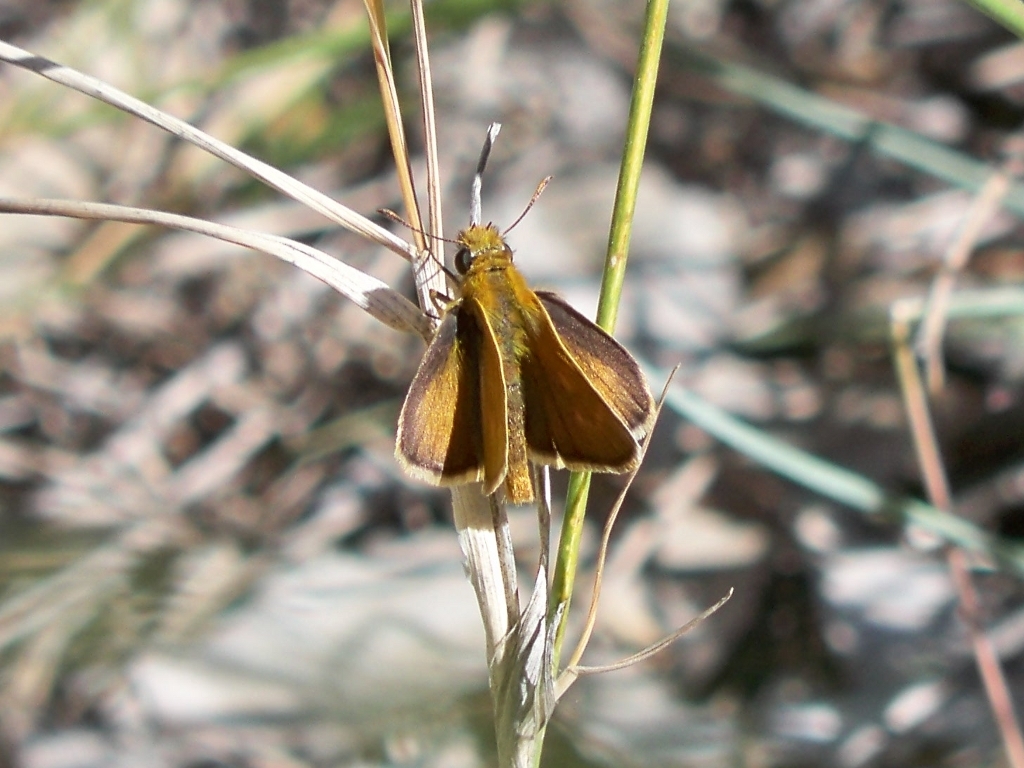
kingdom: Animalia
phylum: Arthropoda
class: Insecta
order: Lepidoptera
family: Hesperiidae
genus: Thymelicus
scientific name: Thymelicus acteon
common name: Lulworth skipper
